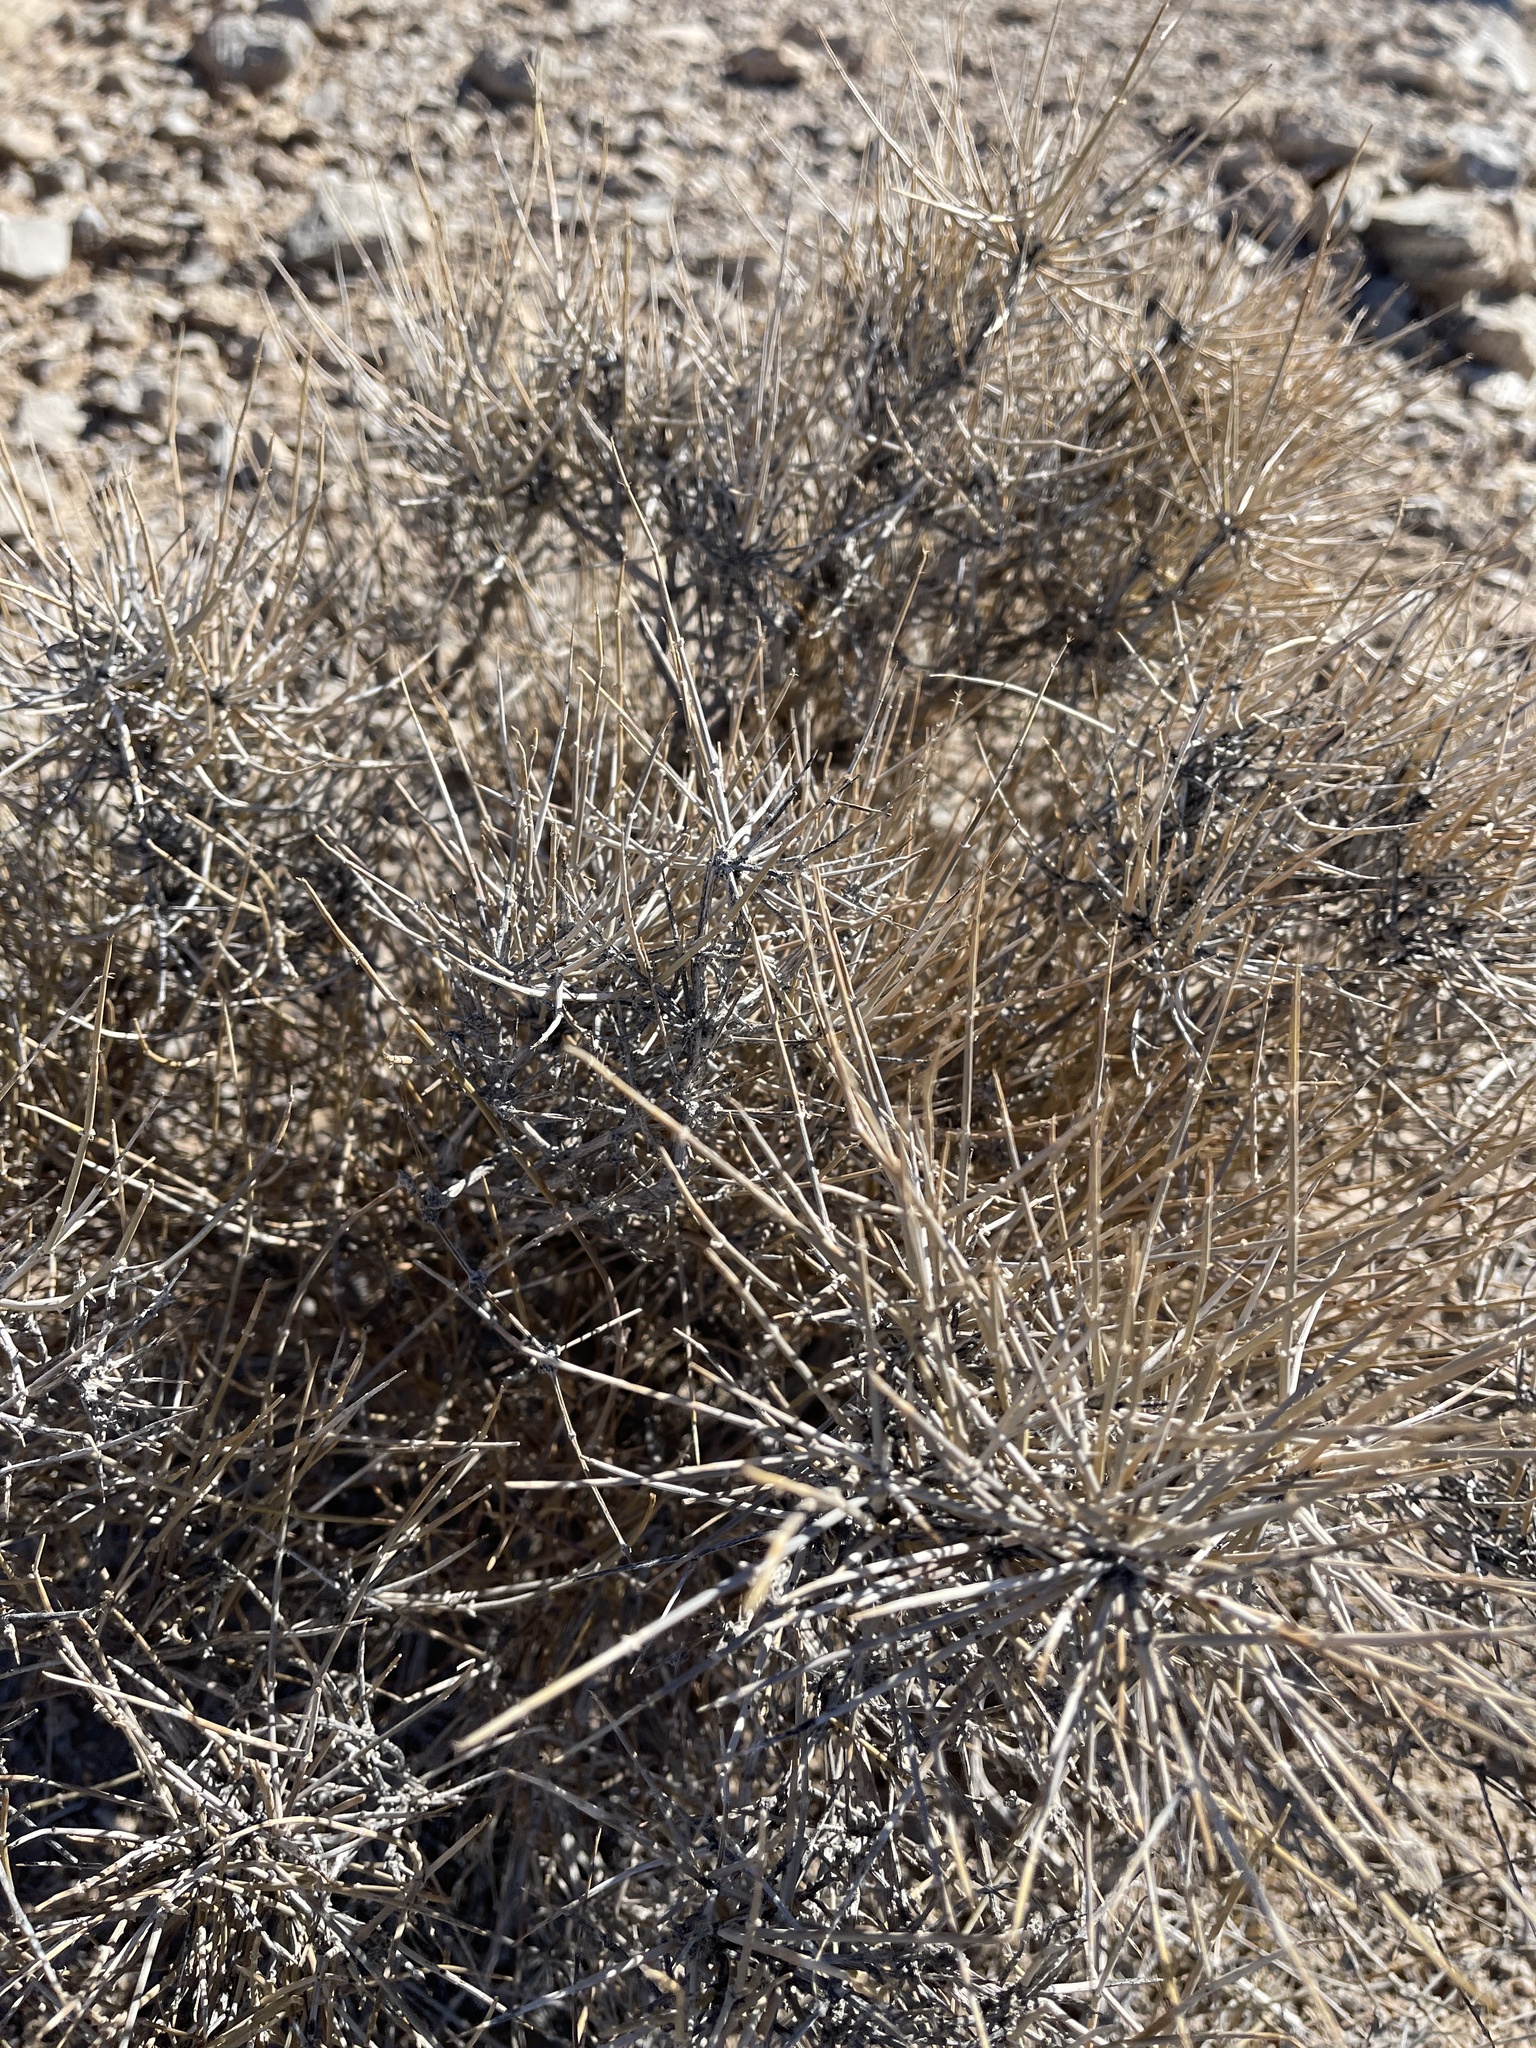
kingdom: Plantae
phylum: Tracheophyta
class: Gnetopsida
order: Ephedrales
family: Ephedraceae
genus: Ephedra
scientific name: Ephedra nevadensis
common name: Gray ephedra
